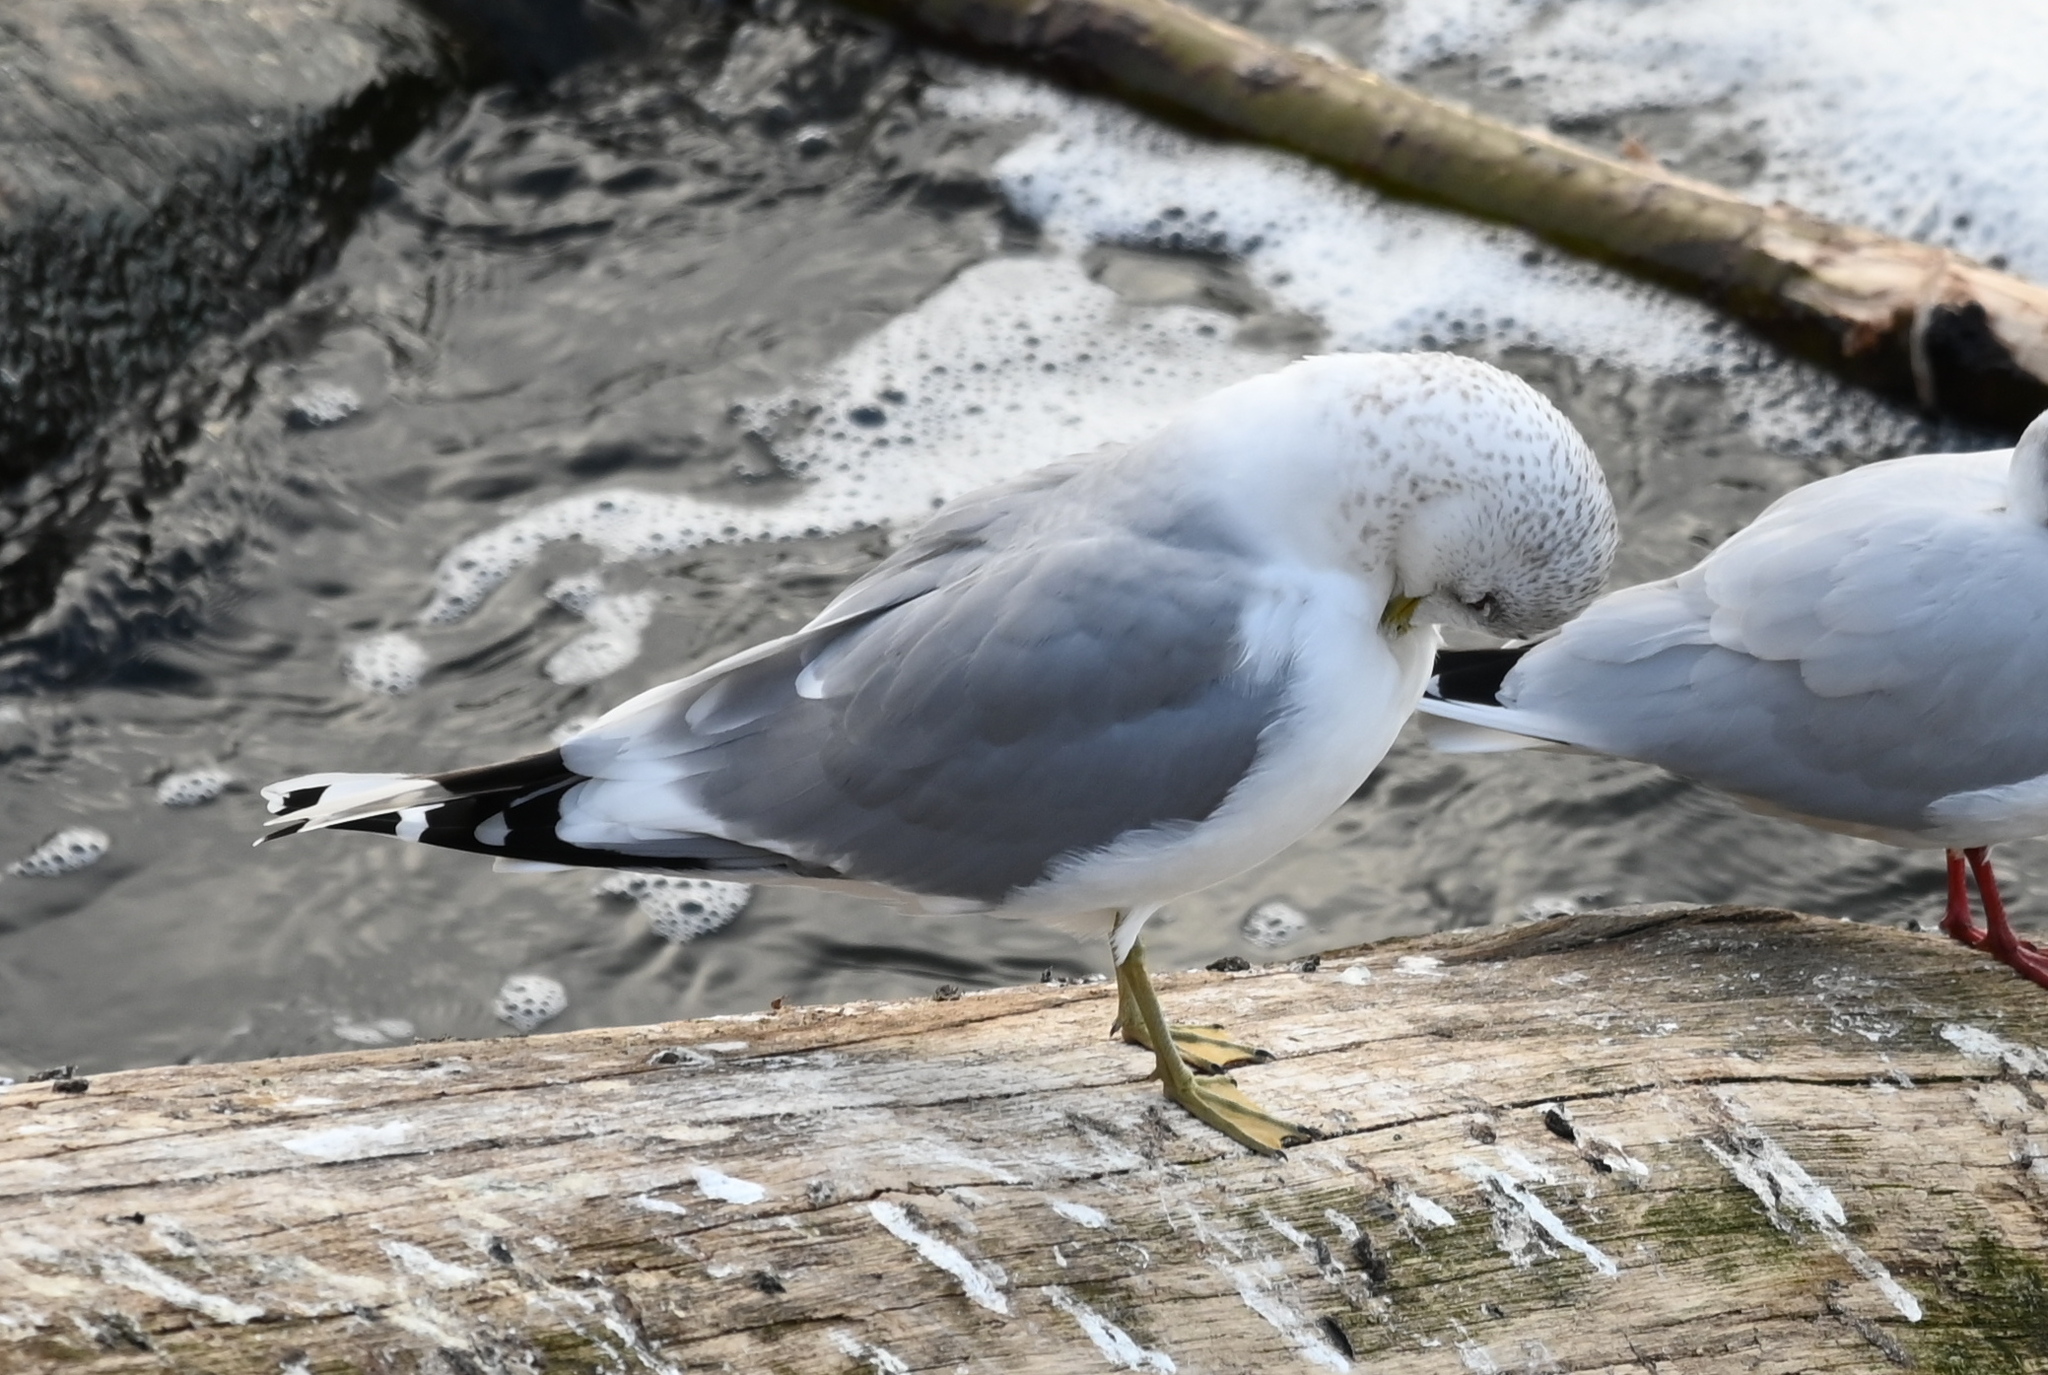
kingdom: Animalia
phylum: Chordata
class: Aves
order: Charadriiformes
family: Laridae
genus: Larus
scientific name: Larus canus
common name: Mew gull
